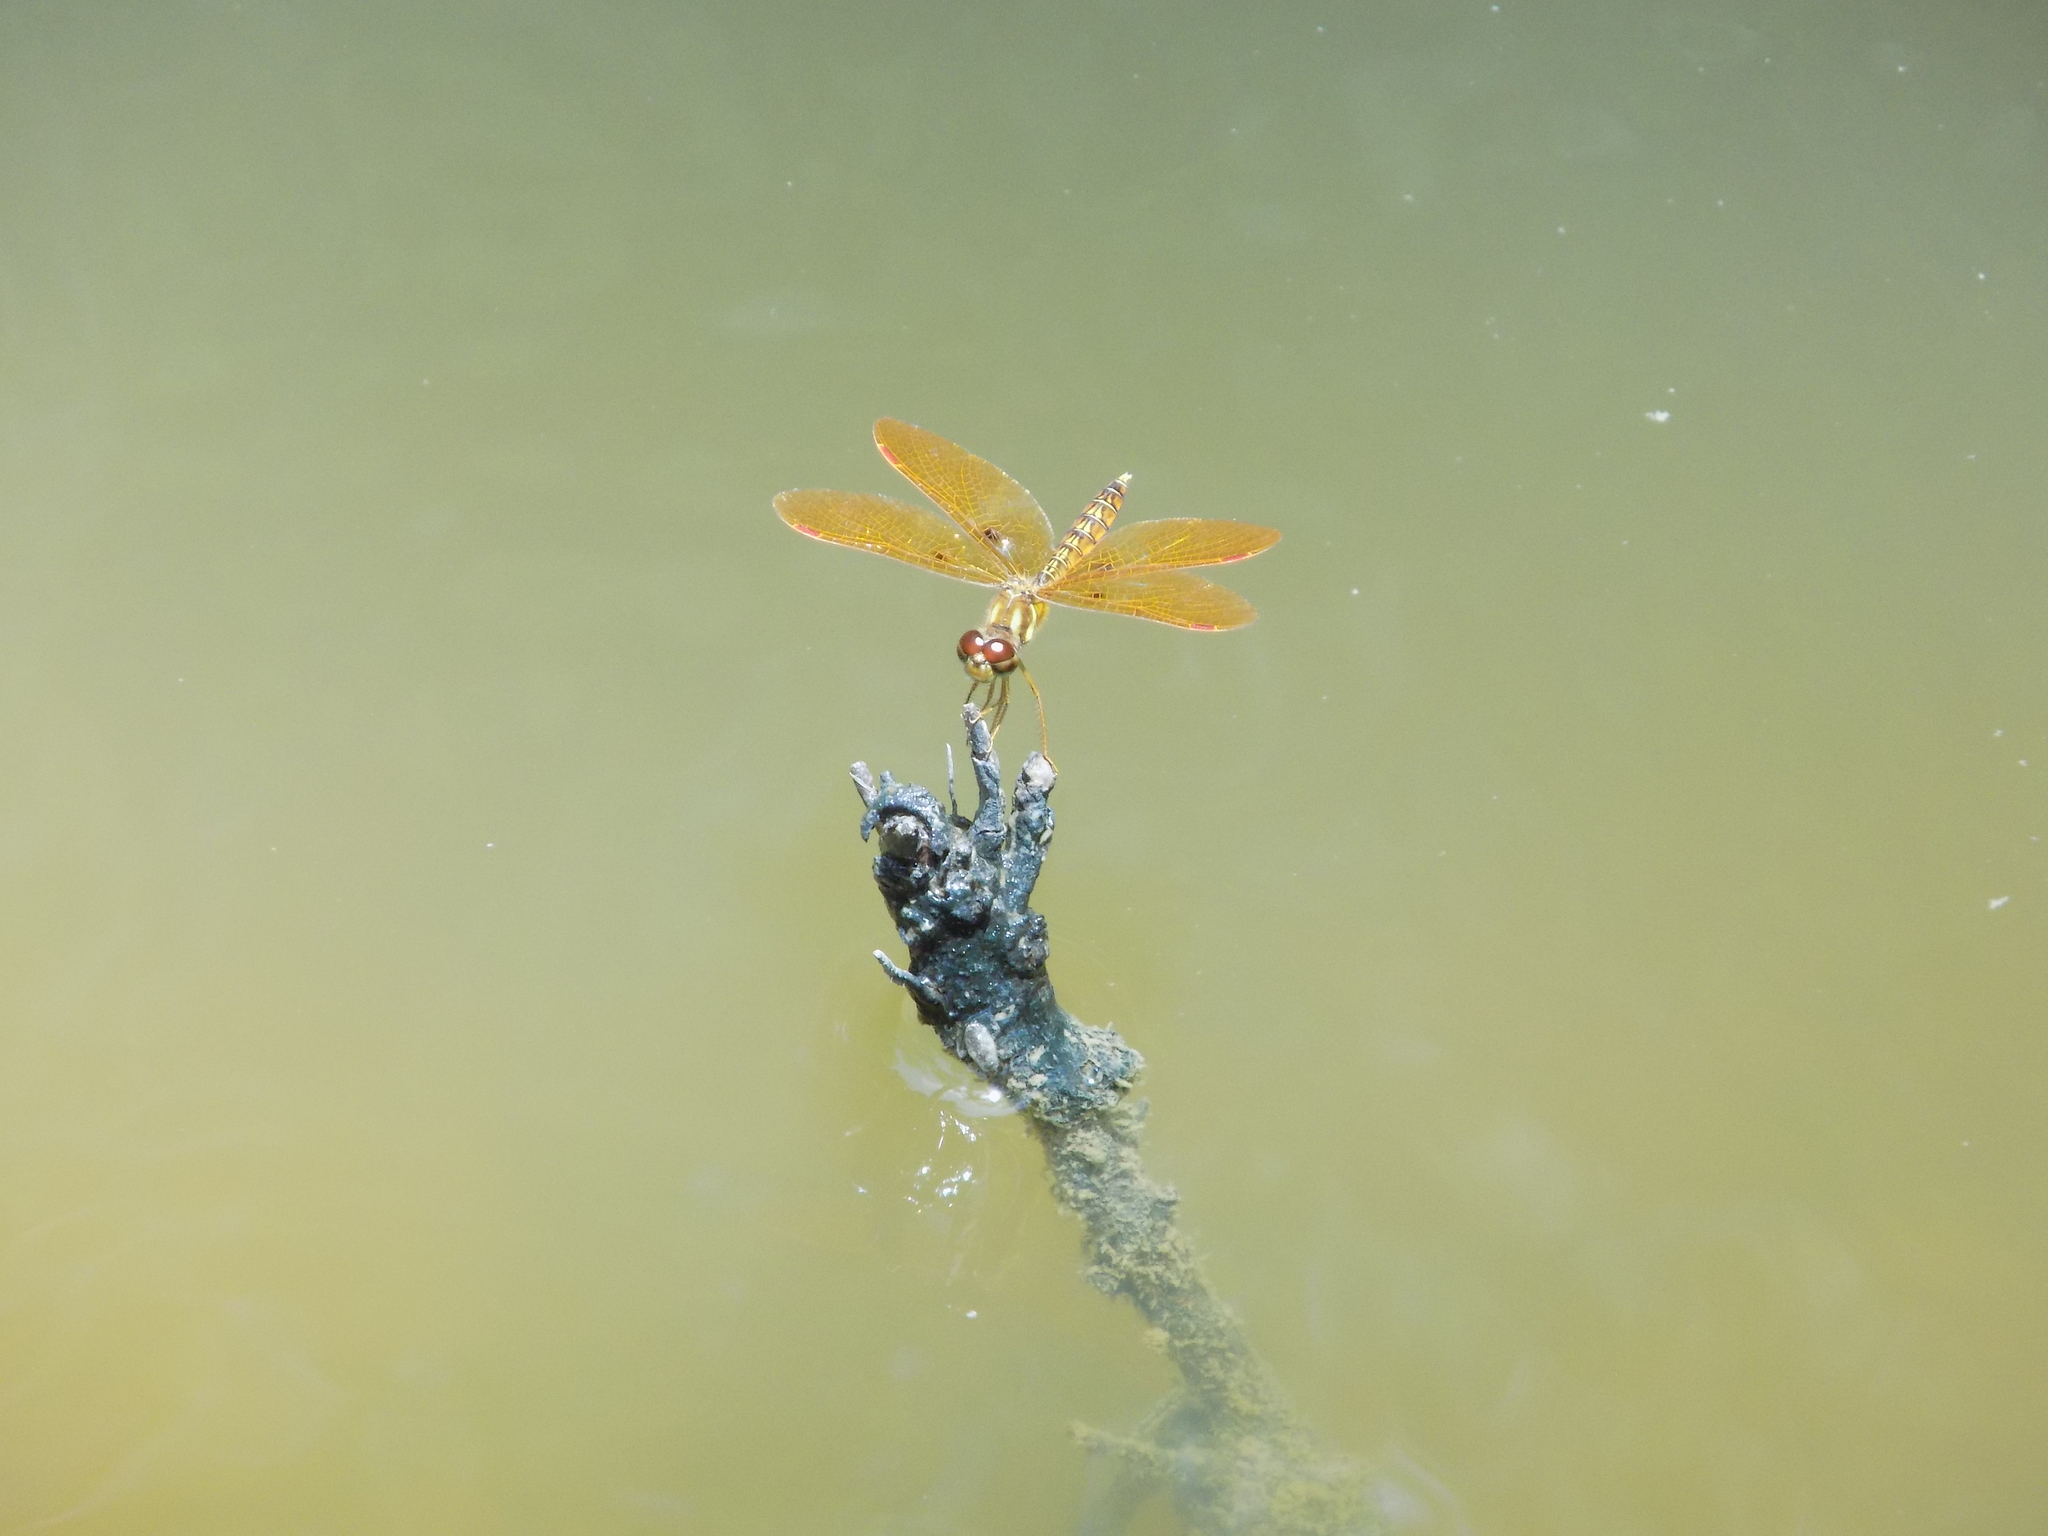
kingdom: Animalia
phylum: Arthropoda
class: Insecta
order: Odonata
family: Libellulidae
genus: Perithemis
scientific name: Perithemis tenera
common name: Eastern amberwing
